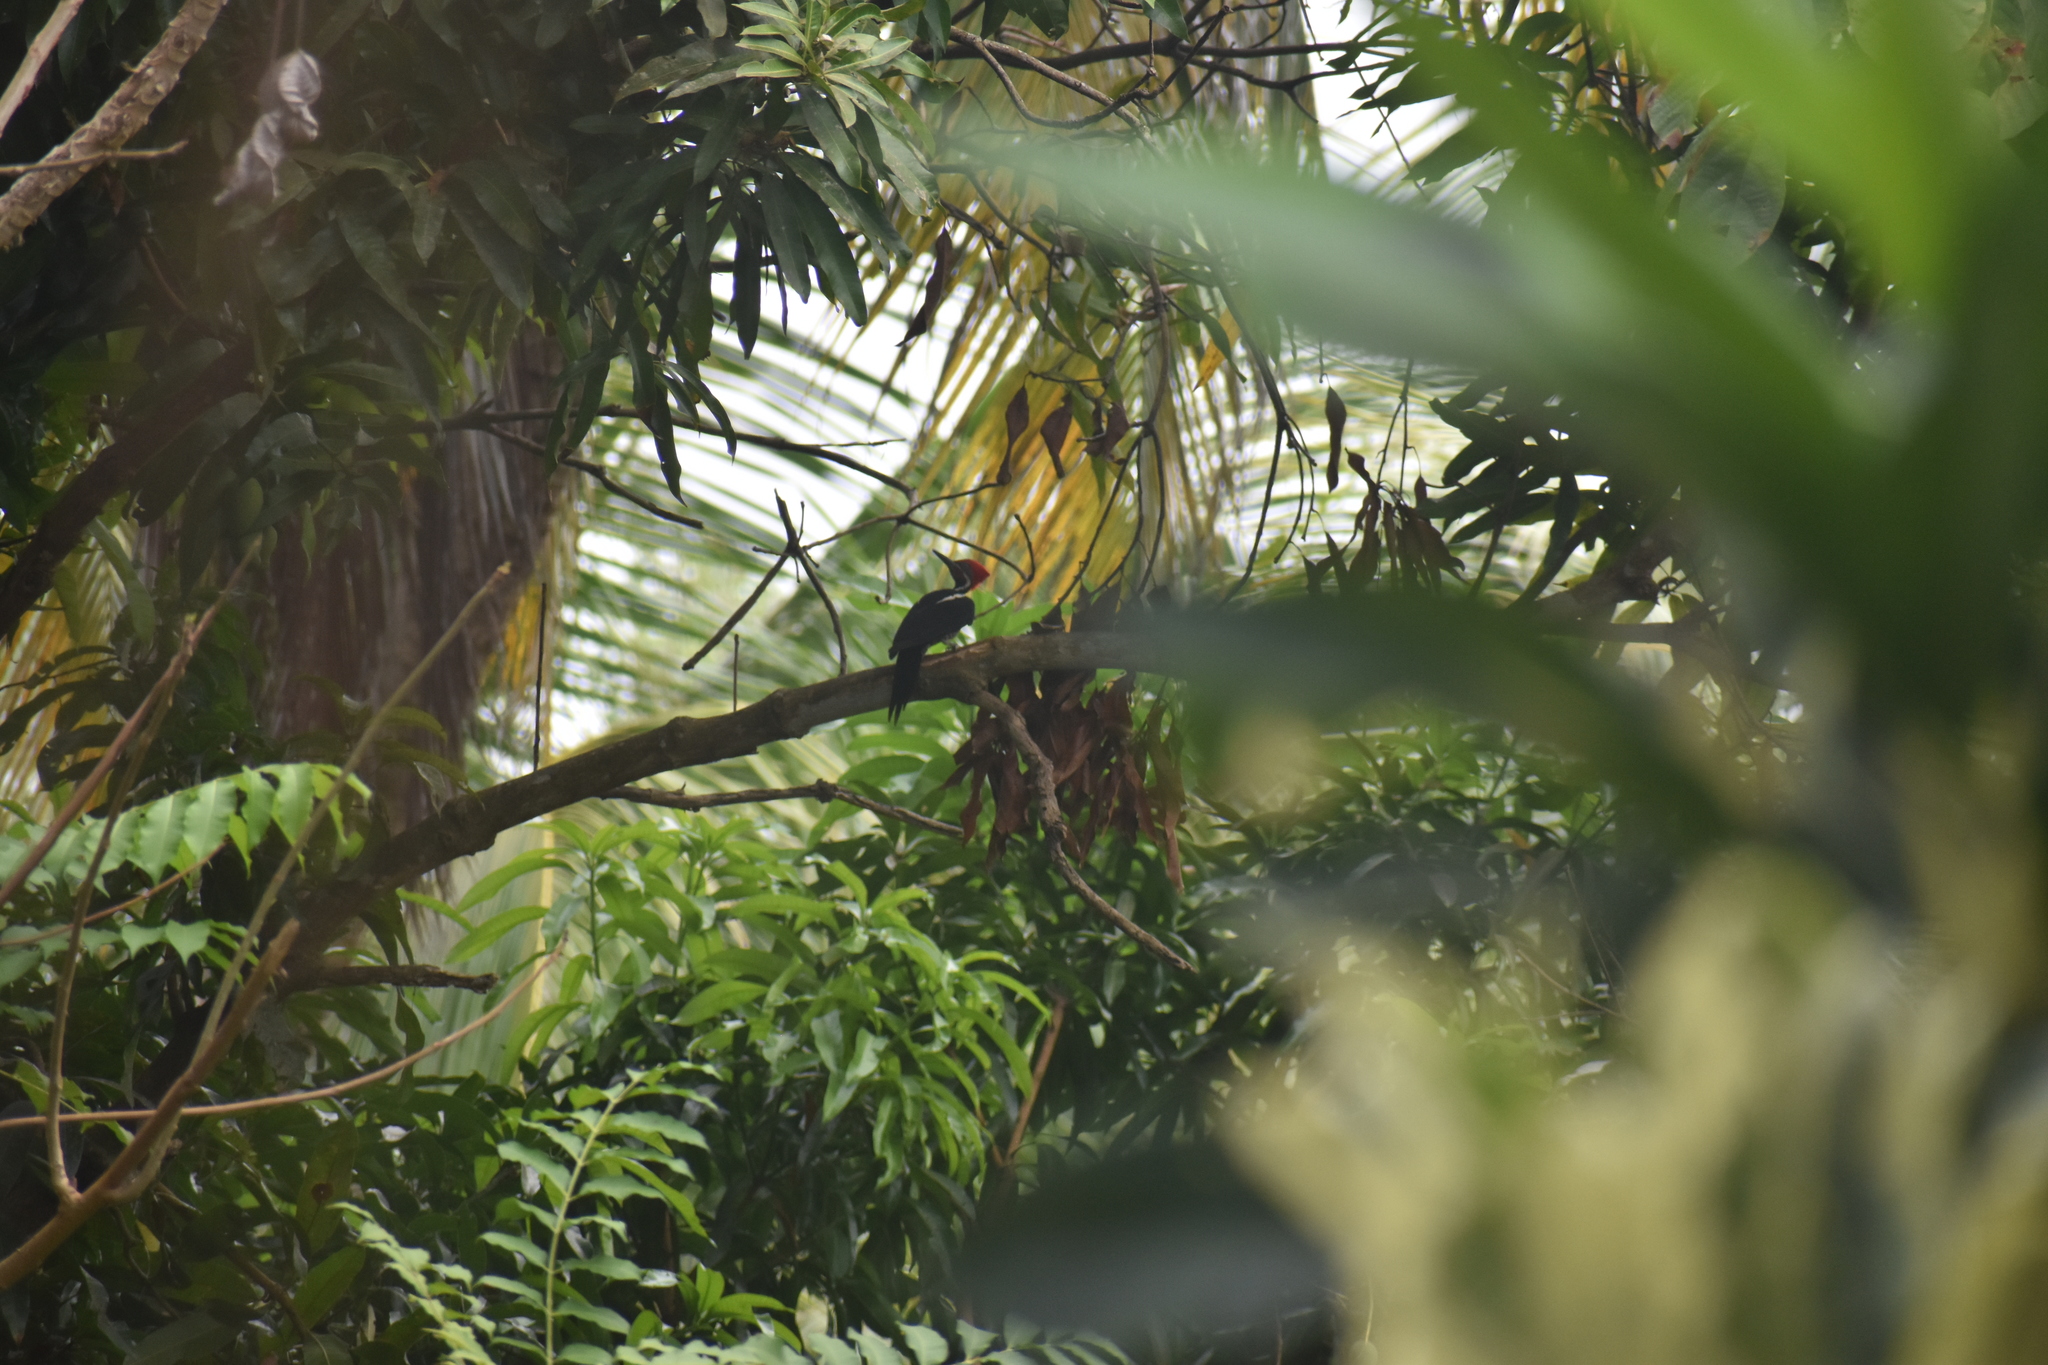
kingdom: Animalia
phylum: Chordata
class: Aves
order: Piciformes
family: Picidae
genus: Dryocopus
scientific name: Dryocopus lineatus
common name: Lineated woodpecker
